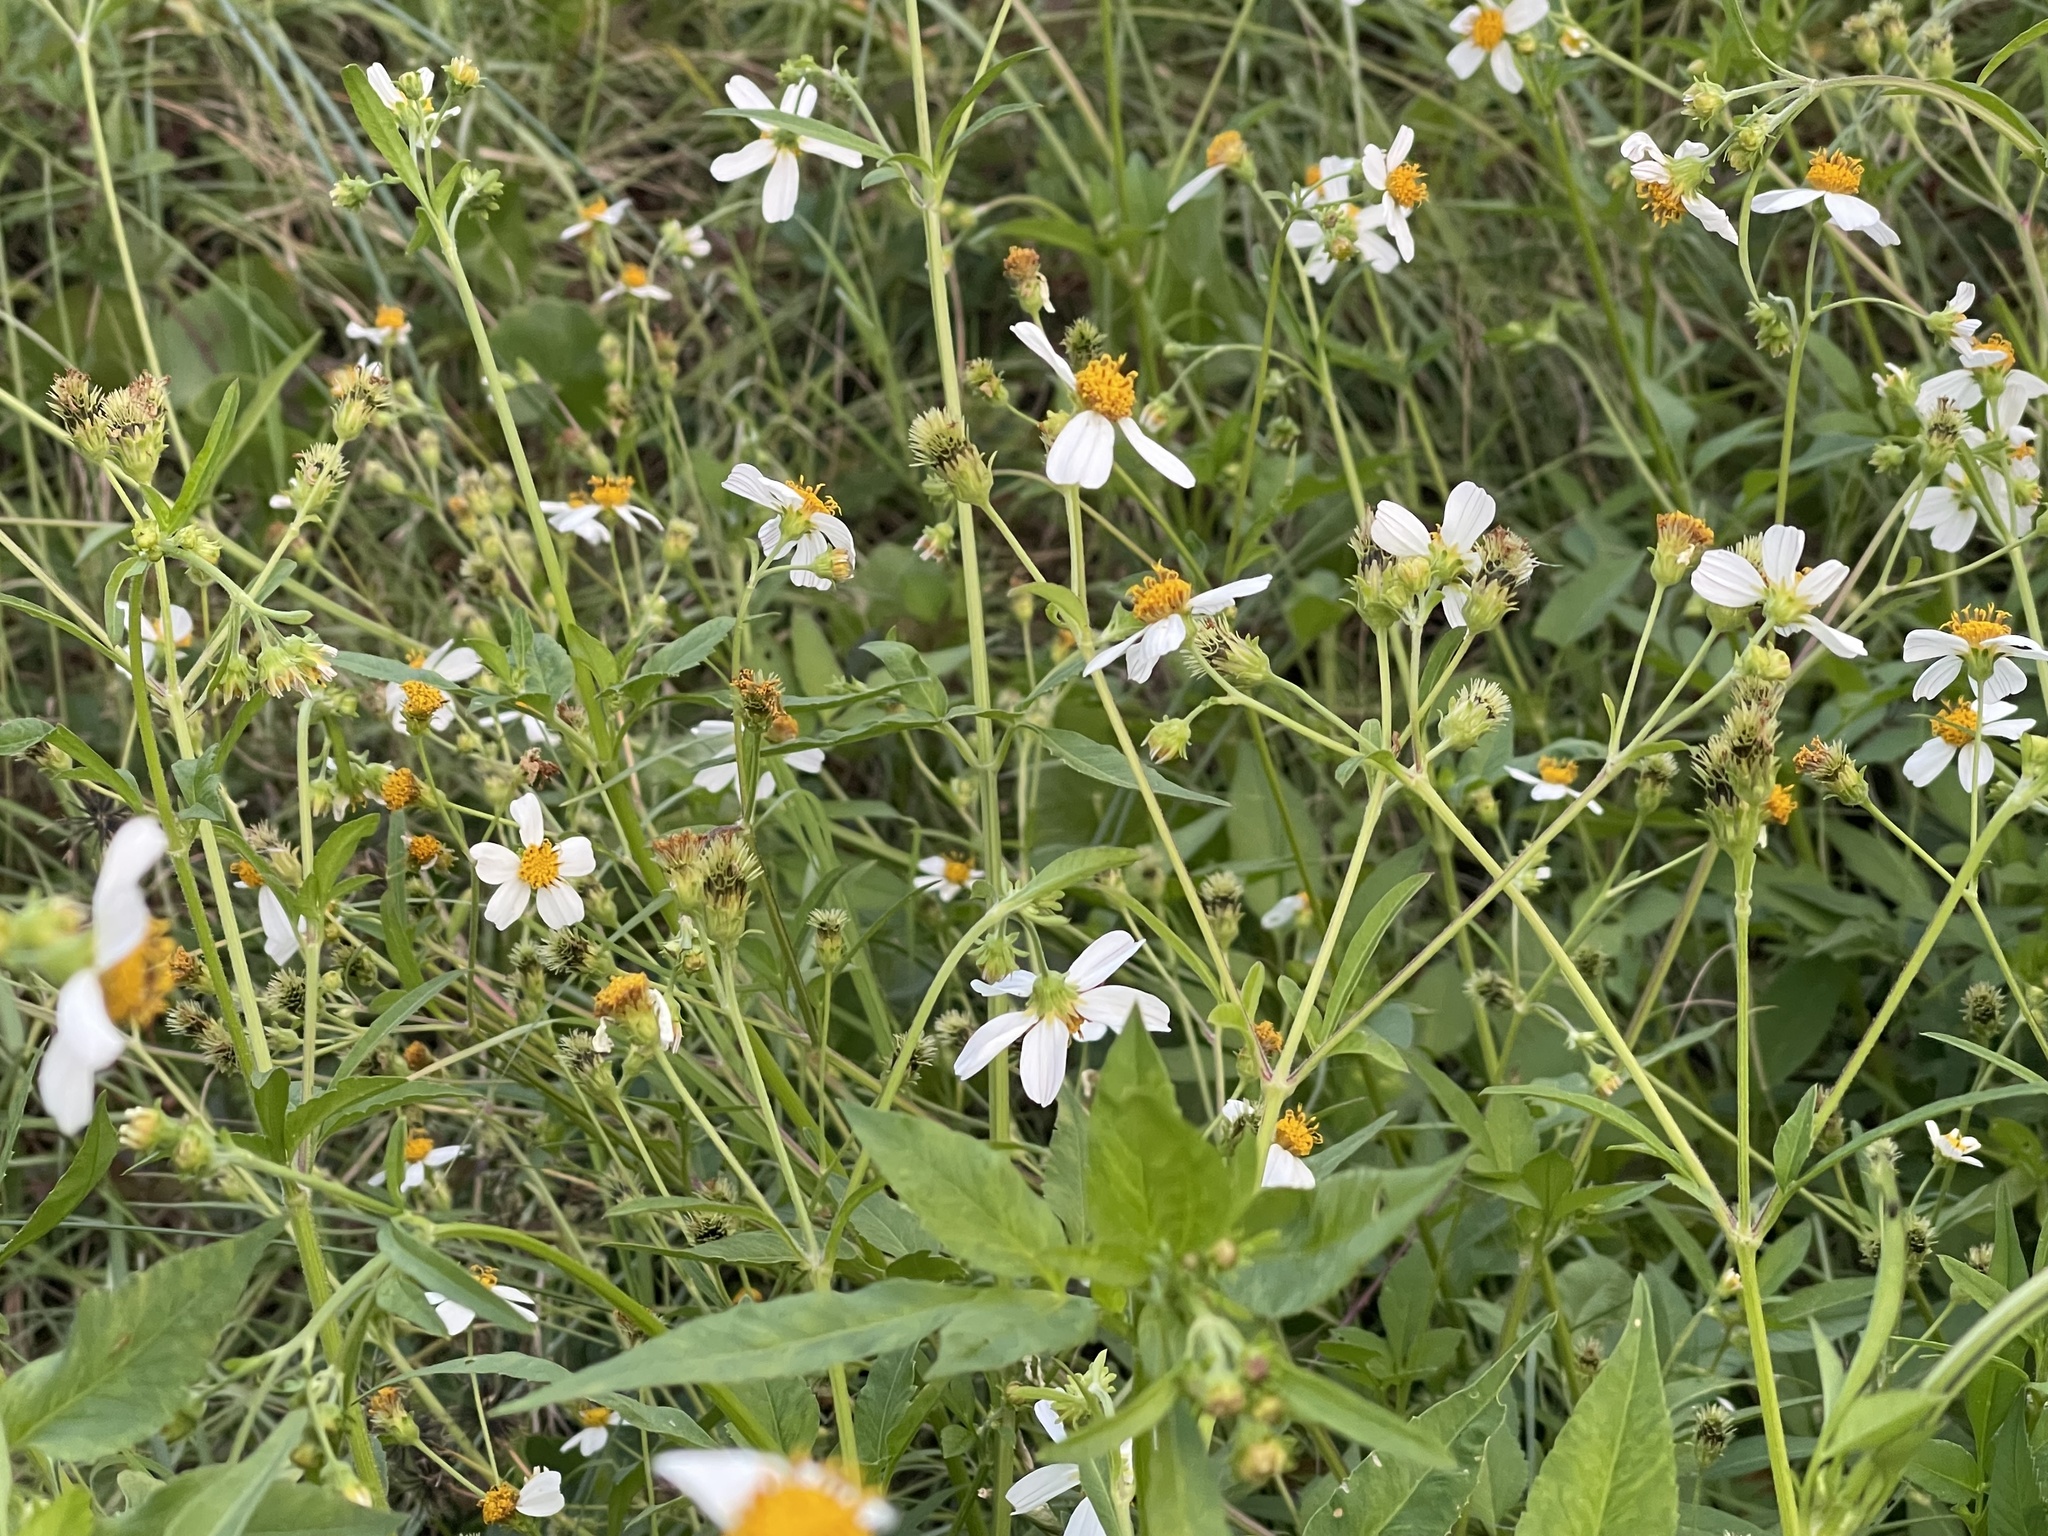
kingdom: Plantae
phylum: Tracheophyta
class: Magnoliopsida
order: Asterales
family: Asteraceae
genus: Bidens
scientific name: Bidens alba
